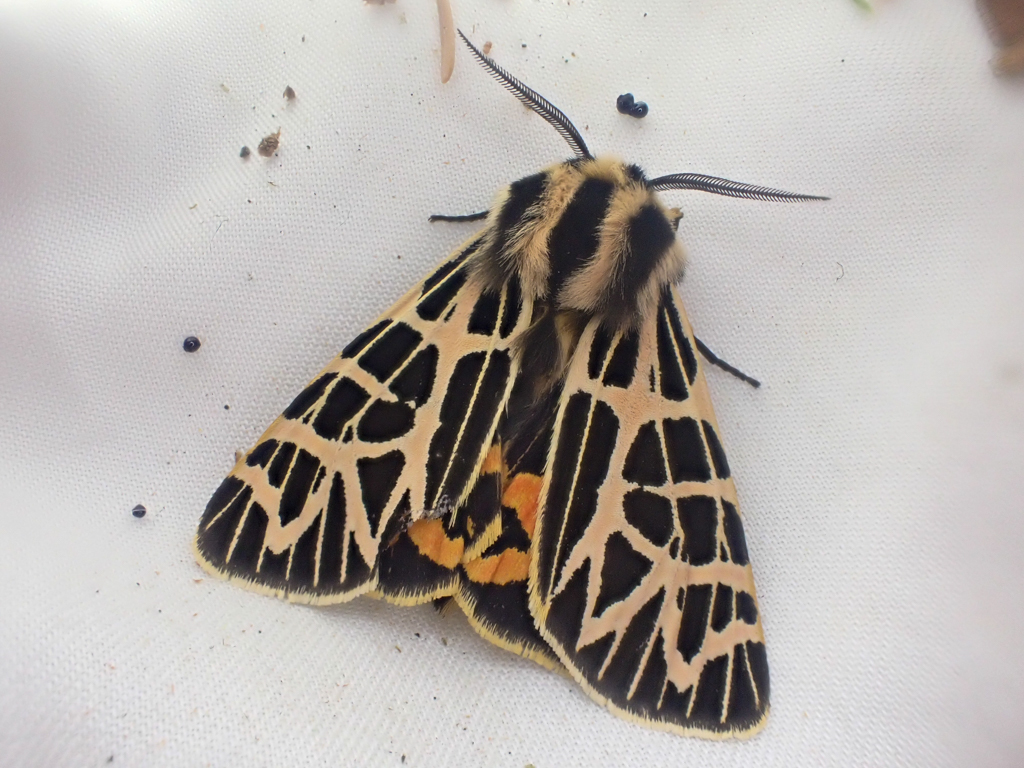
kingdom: Animalia
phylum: Arthropoda
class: Insecta
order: Lepidoptera
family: Erebidae
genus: Apantesis
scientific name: Apantesis
